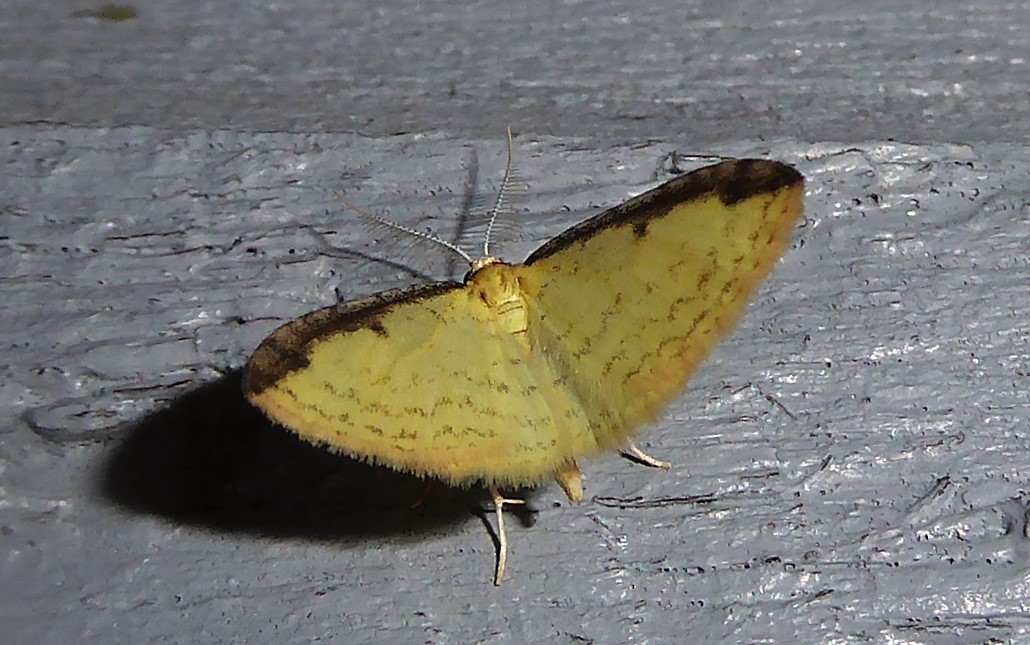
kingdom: Animalia
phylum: Arthropoda
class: Insecta
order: Lepidoptera
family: Geometridae
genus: Epiphryne
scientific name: Epiphryne undosata
